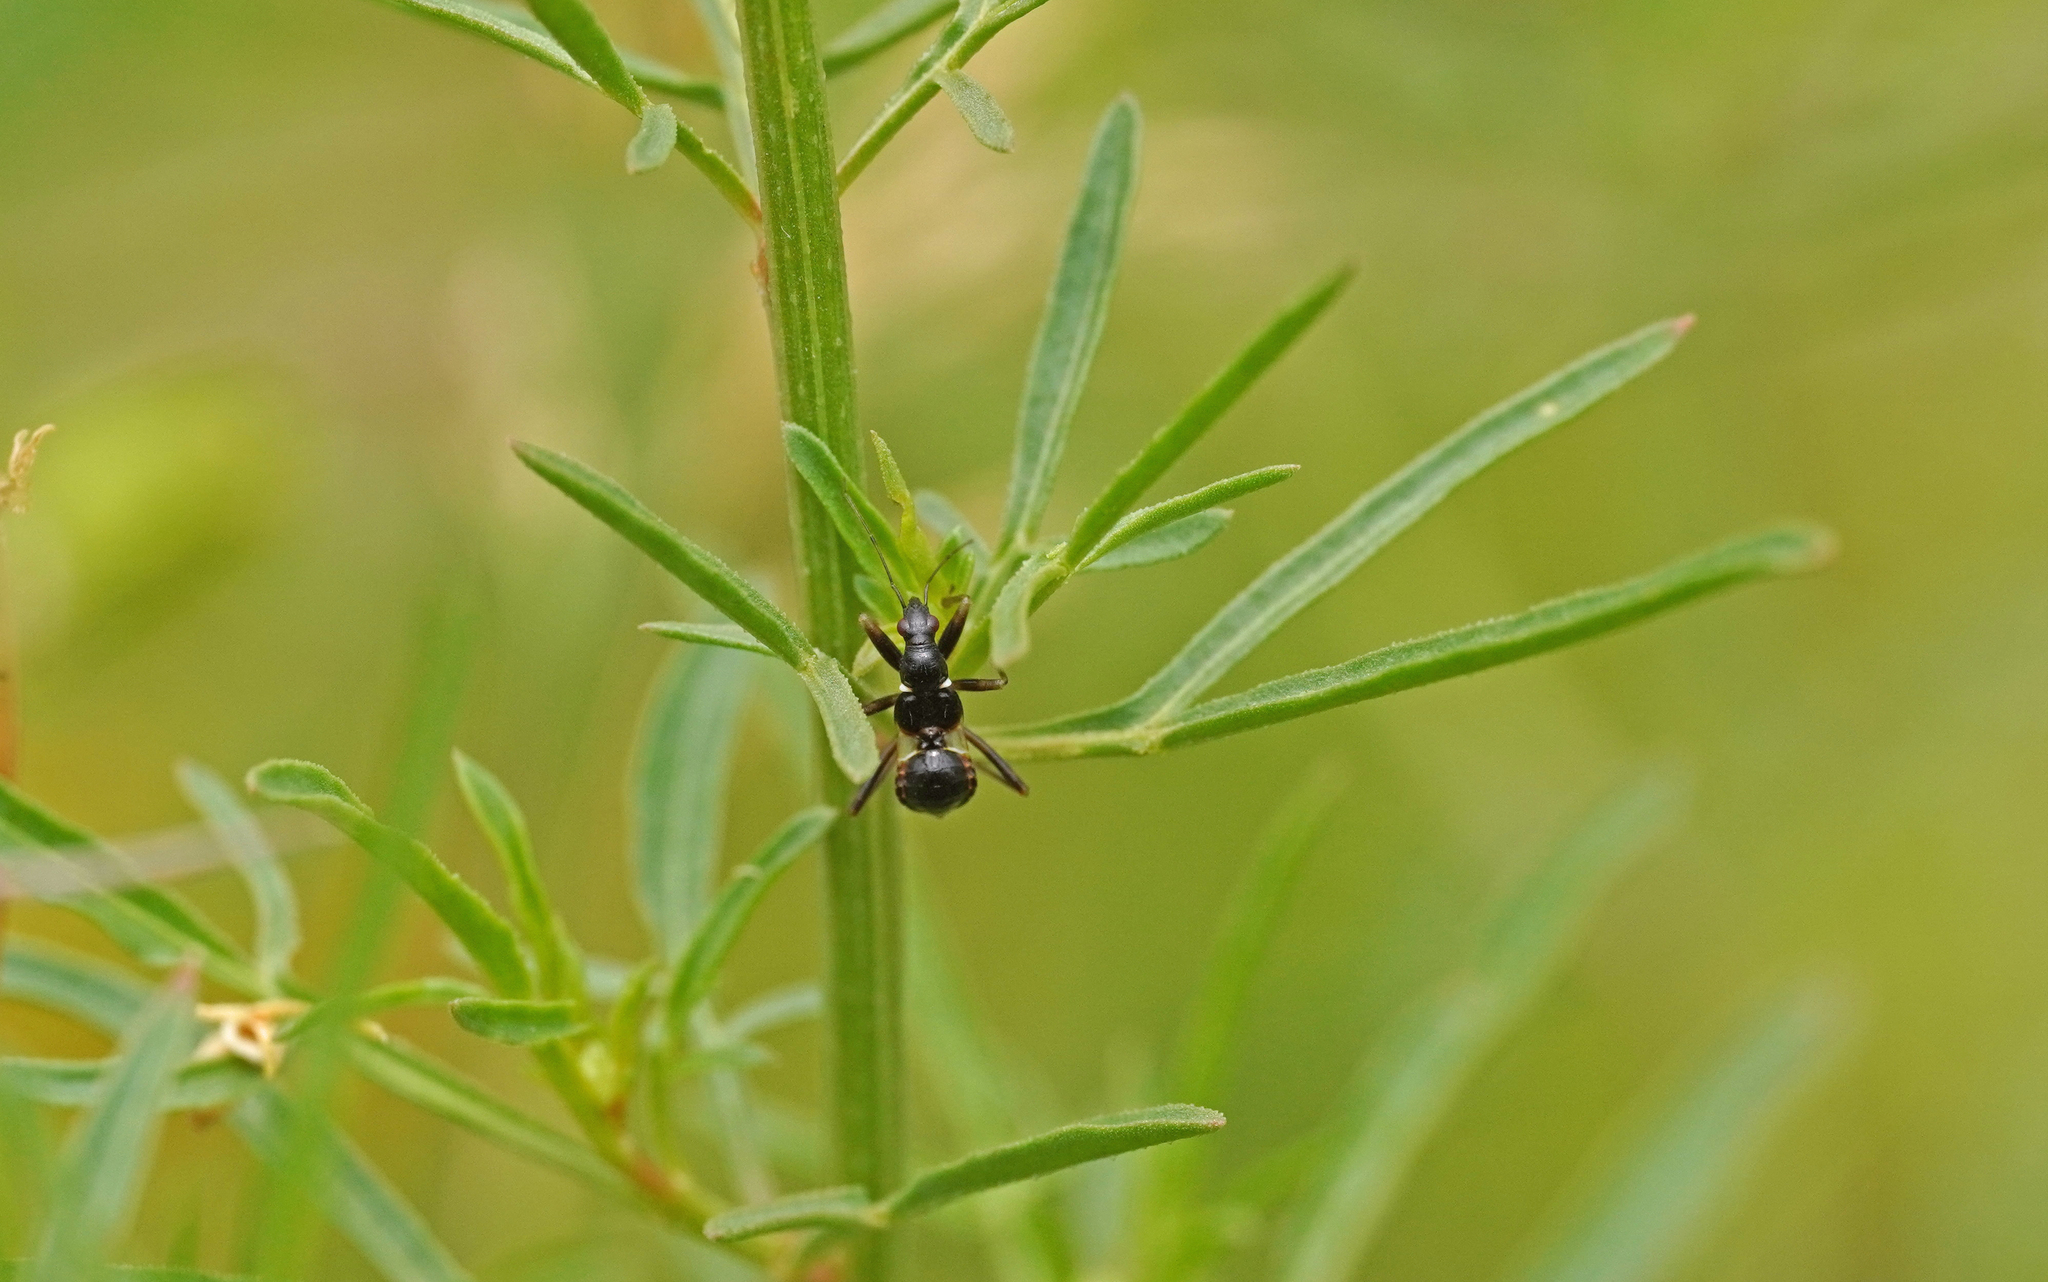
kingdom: Animalia
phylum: Arthropoda
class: Insecta
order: Hemiptera
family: Nabidae
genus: Himacerus
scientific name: Himacerus mirmicoides
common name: Ant damsel bug
